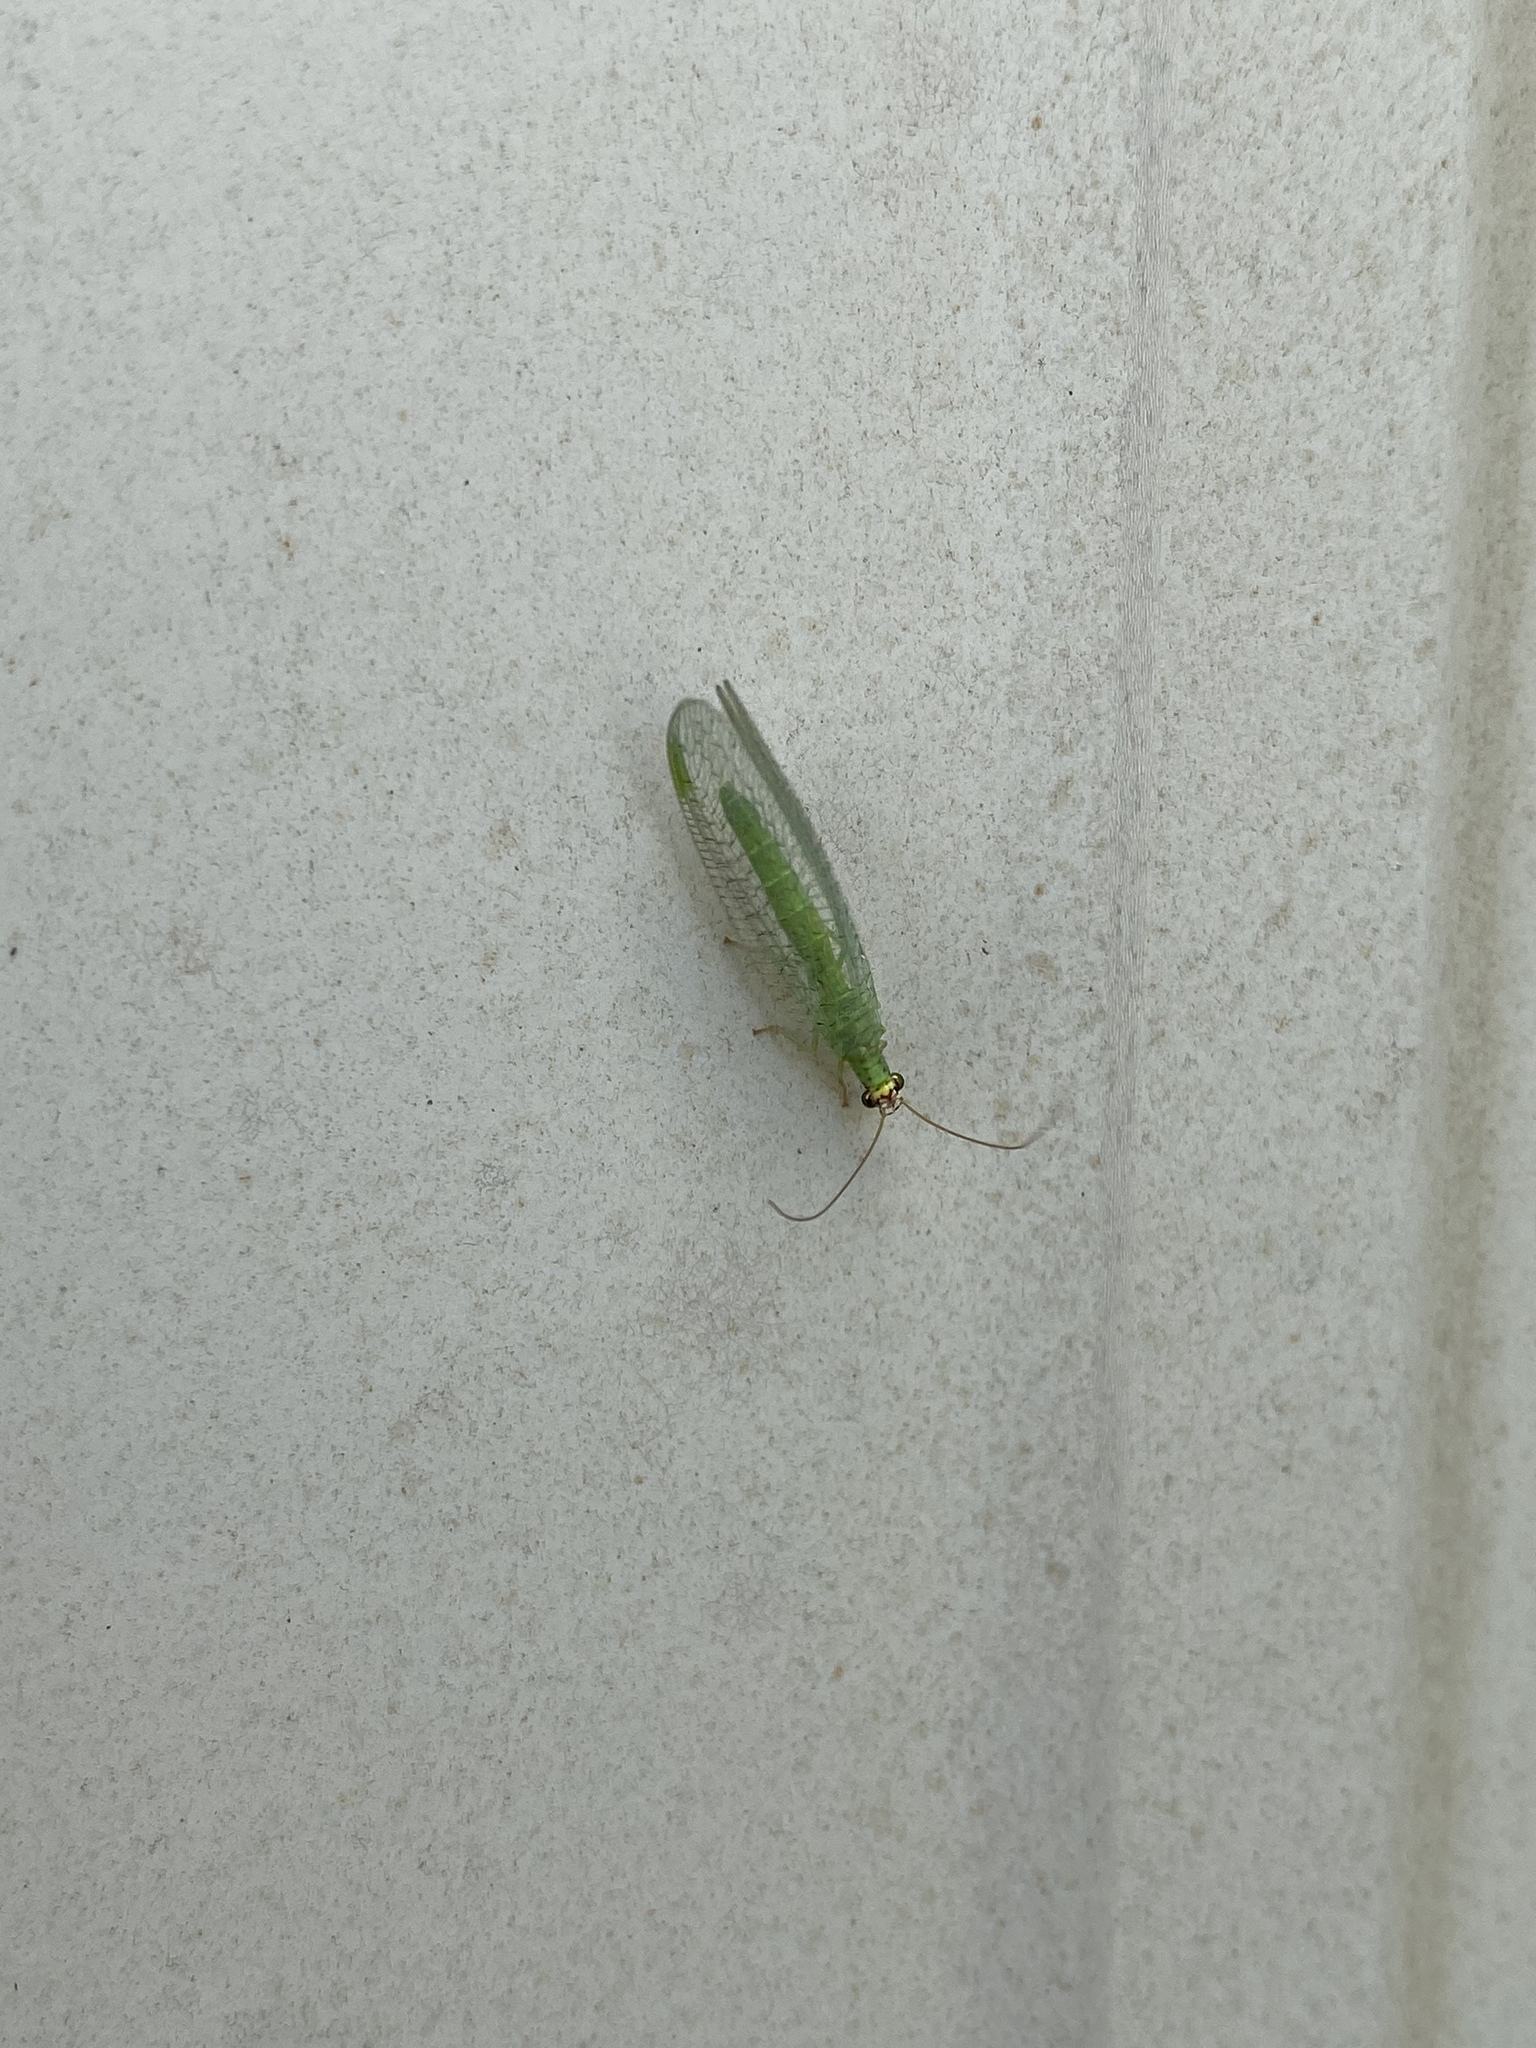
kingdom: Animalia
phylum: Arthropoda
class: Insecta
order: Neuroptera
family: Chrysopidae
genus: Chrysopa
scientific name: Chrysopa oculata
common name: Golden-eyed lacewing
